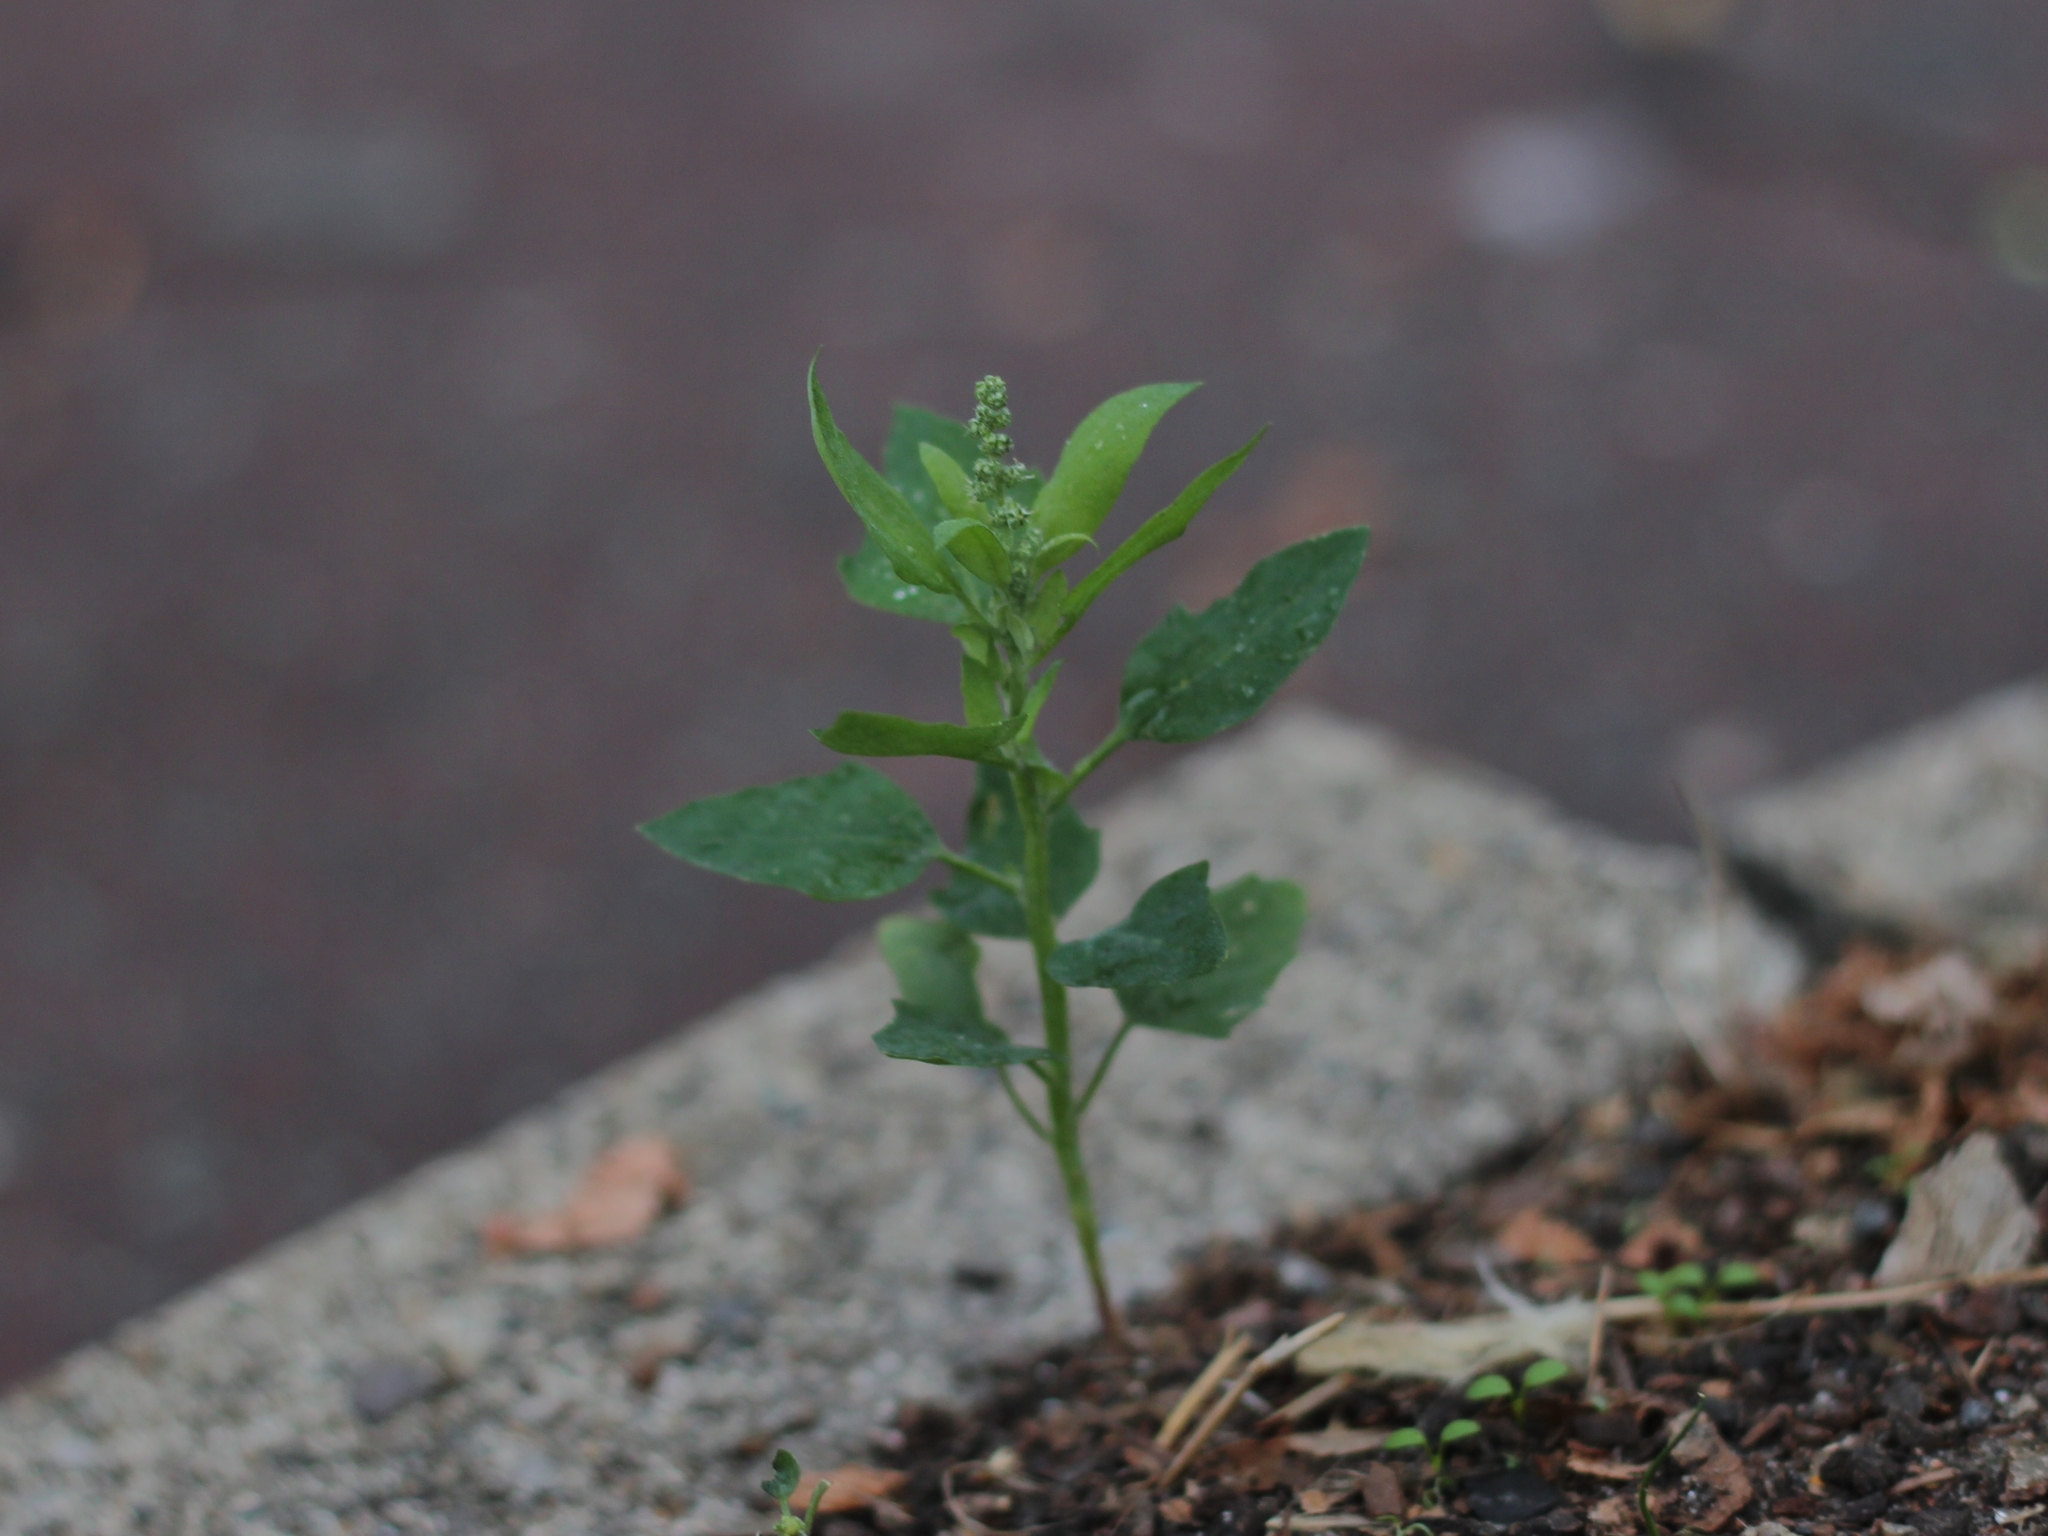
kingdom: Plantae
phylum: Tracheophyta
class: Magnoliopsida
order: Caryophyllales
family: Amaranthaceae
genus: Chenopodium
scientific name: Chenopodium album
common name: Fat-hen
